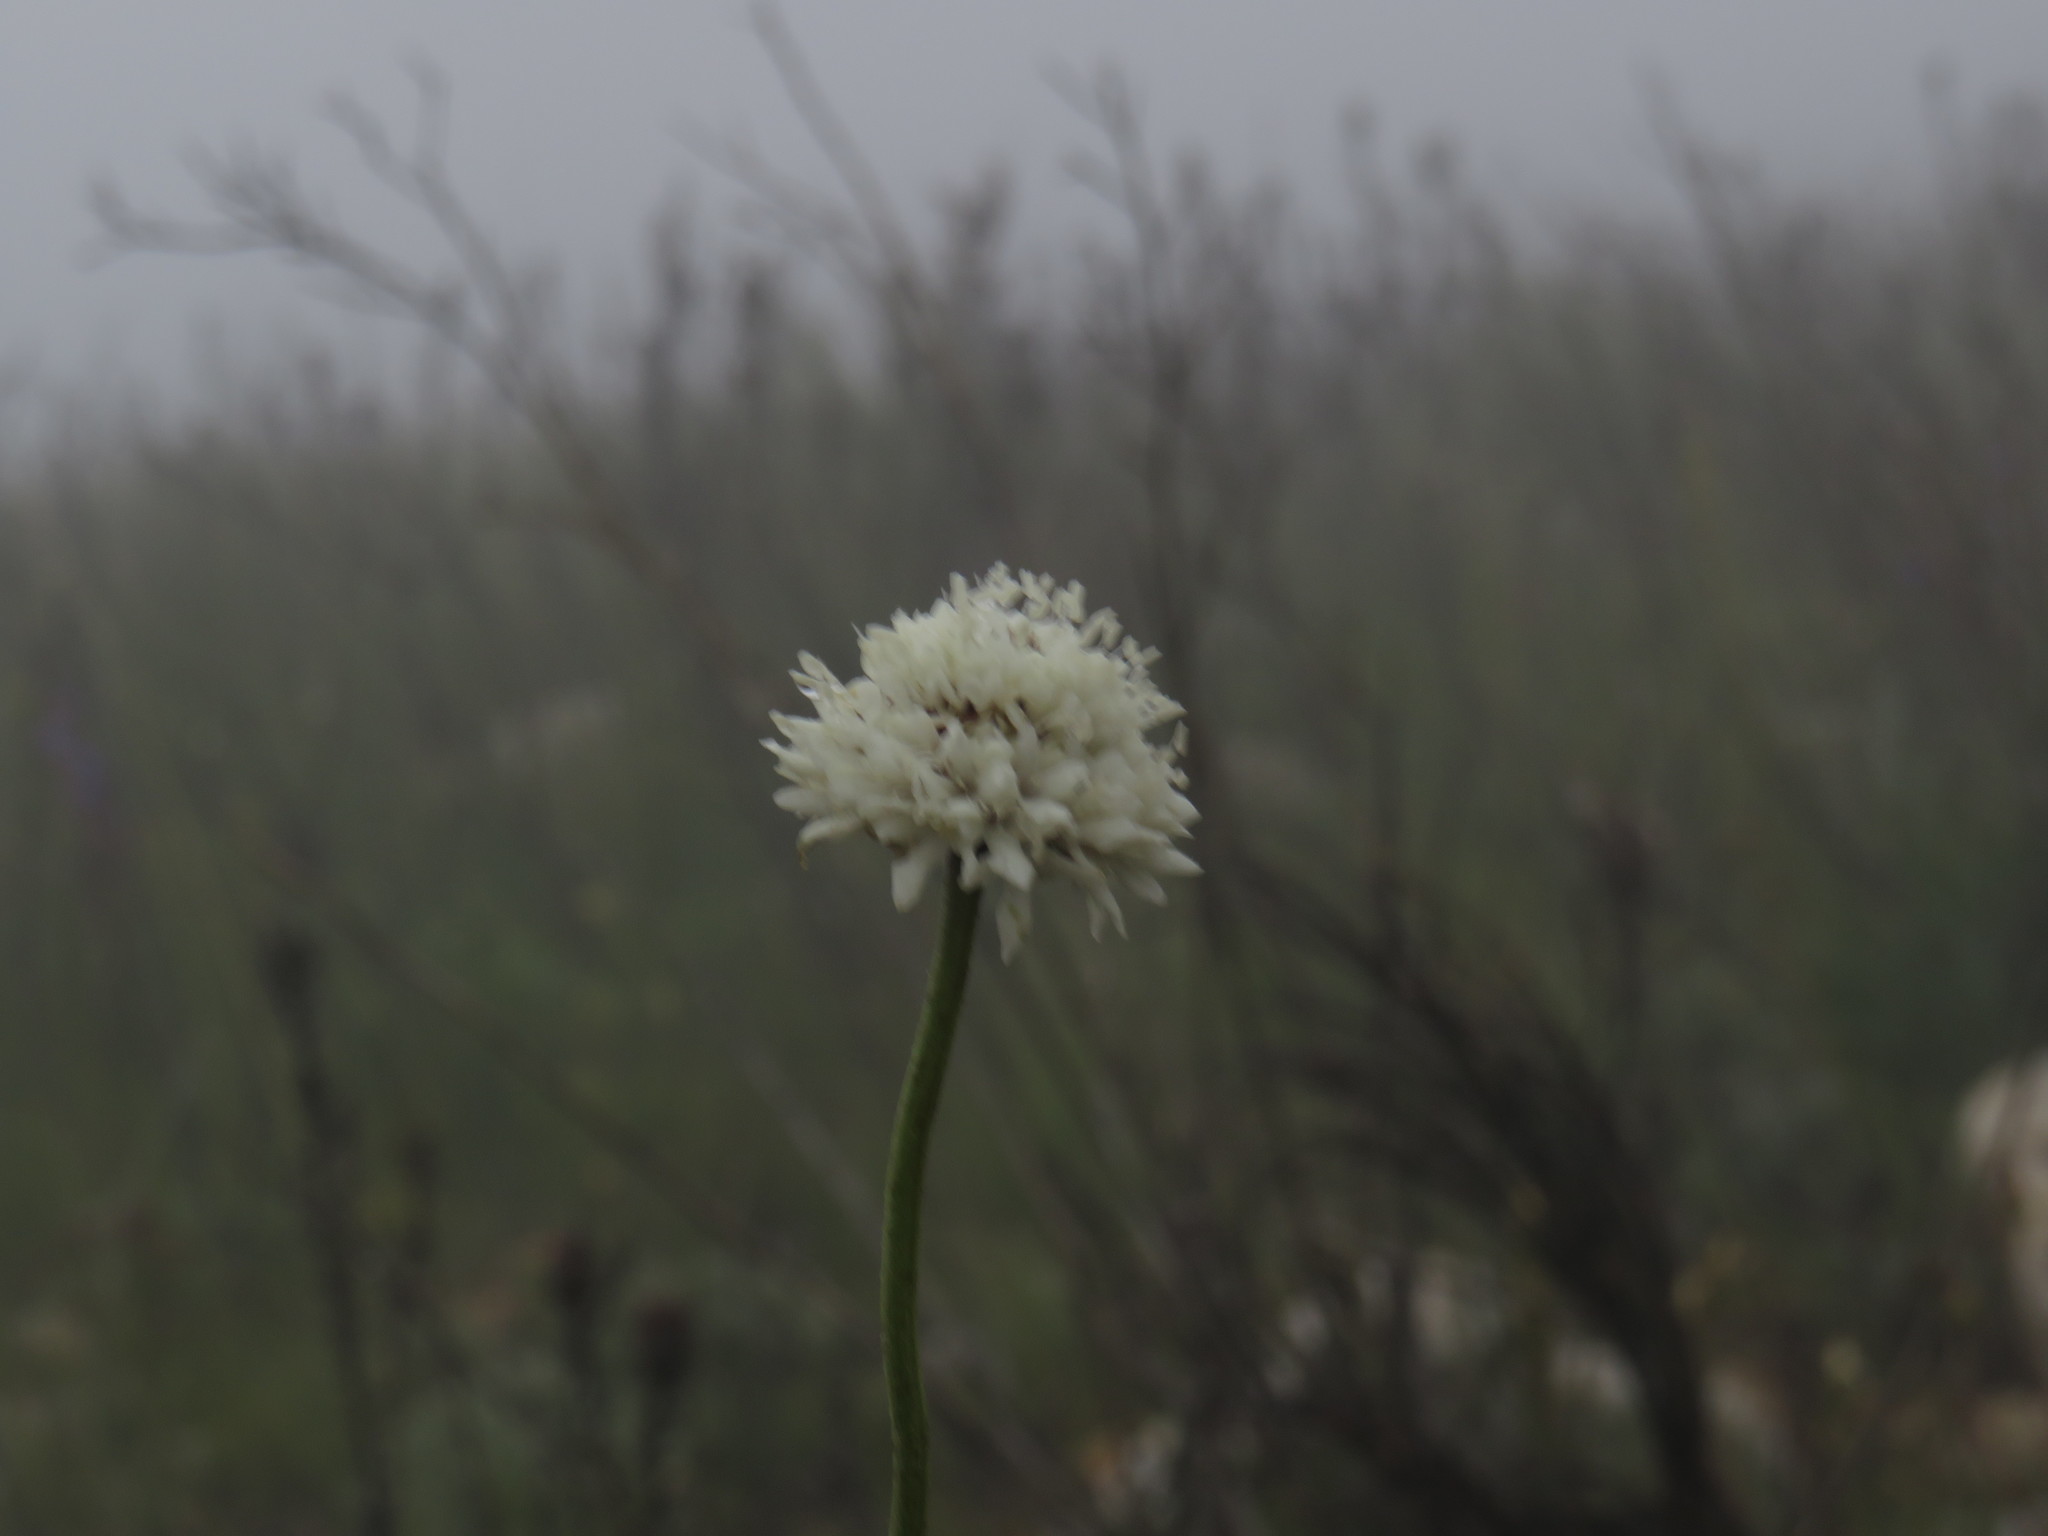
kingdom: Plantae
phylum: Tracheophyta
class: Magnoliopsida
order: Dipsacales
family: Caprifoliaceae
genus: Cephalaria
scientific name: Cephalaria rigida
